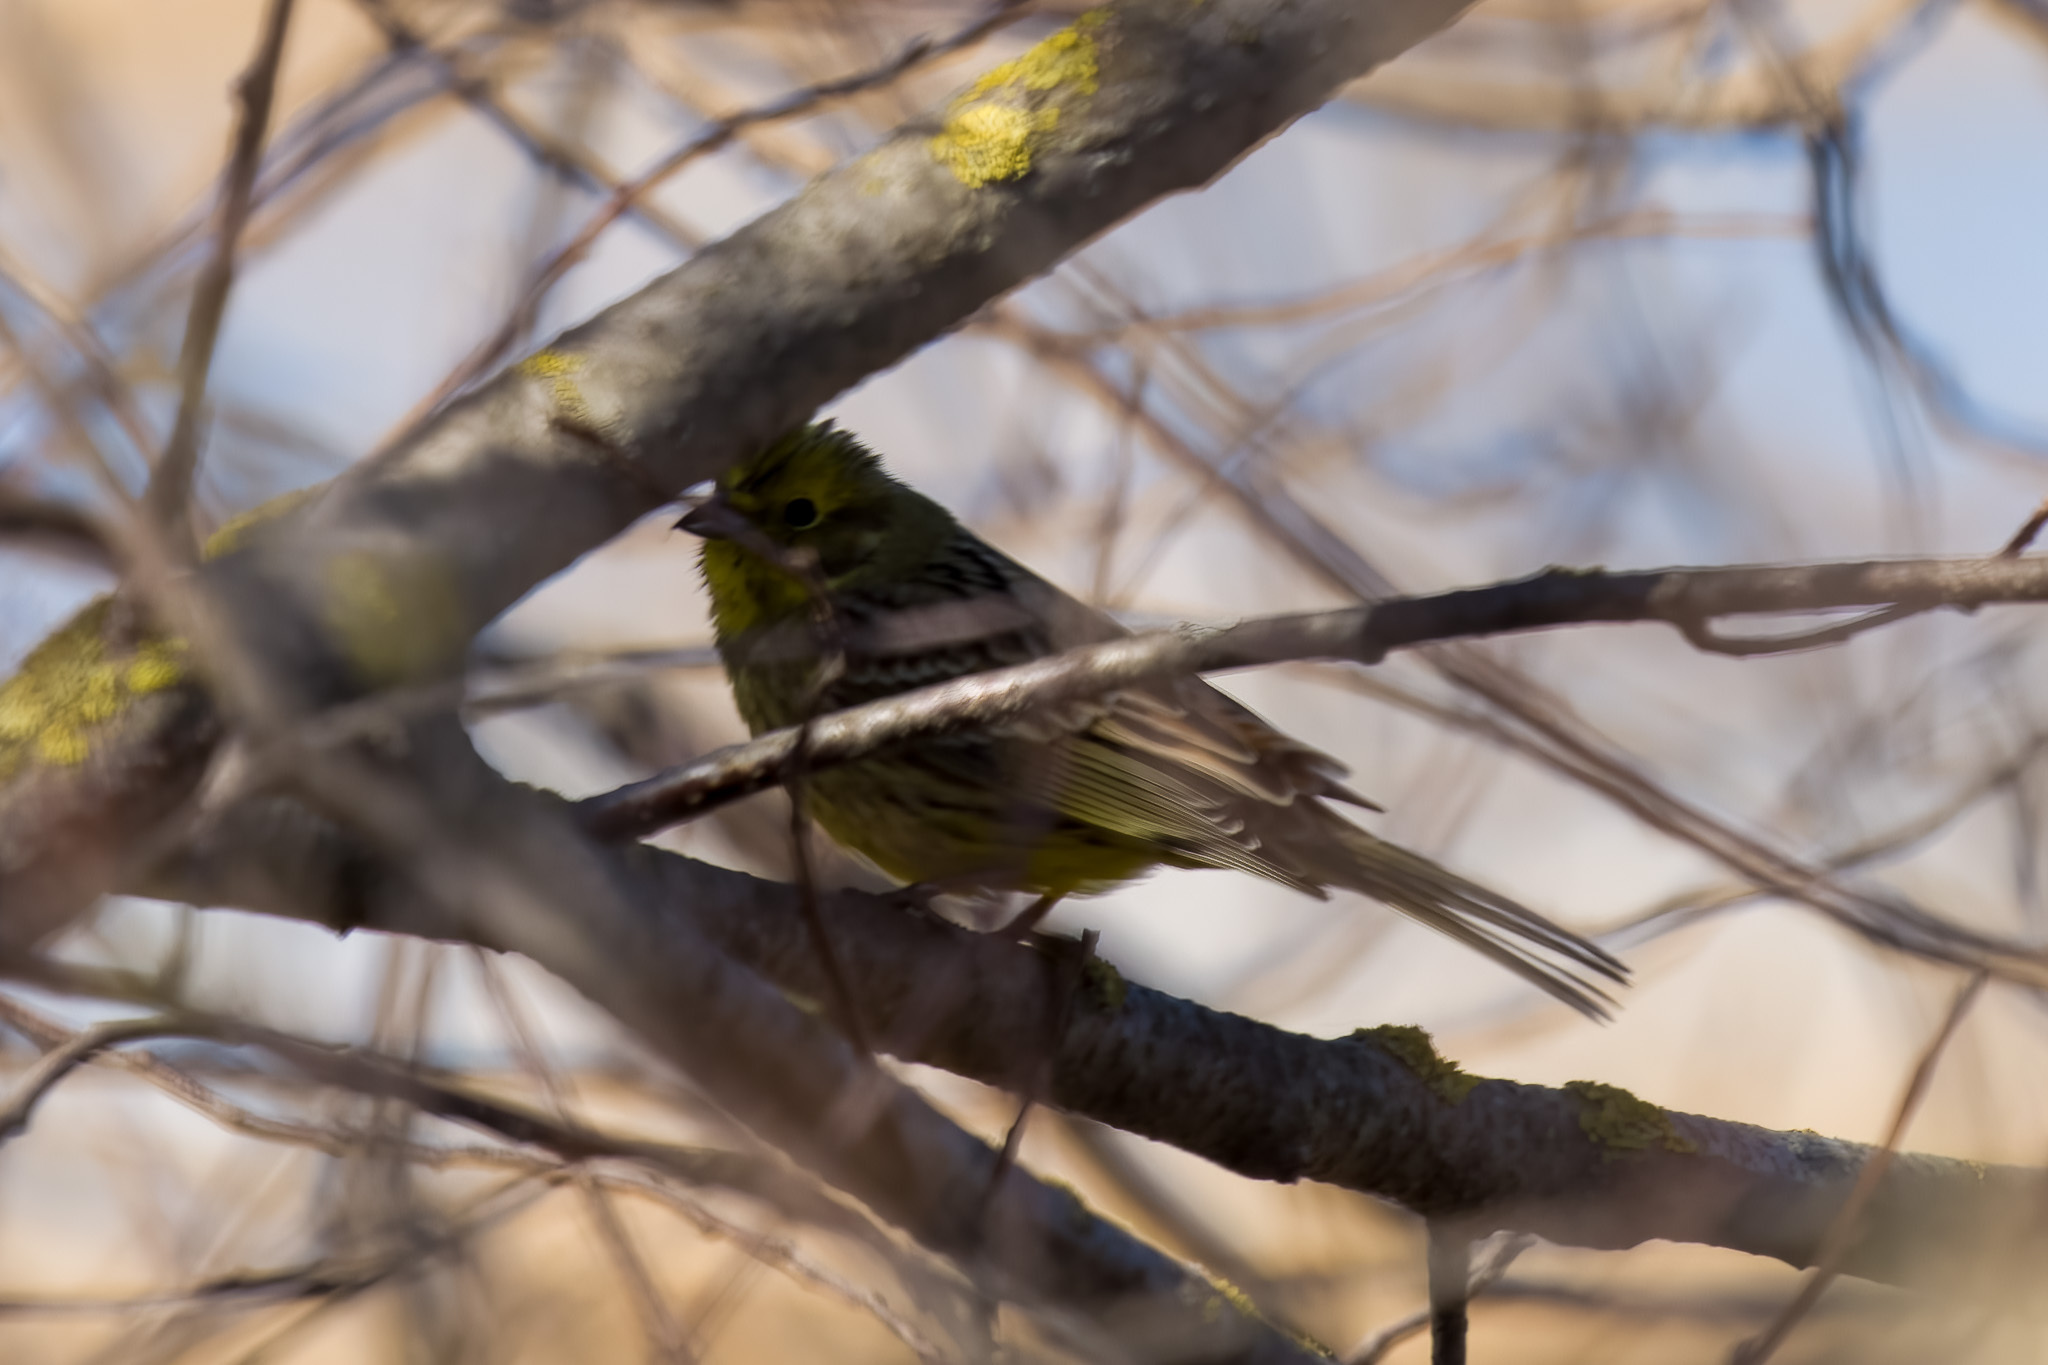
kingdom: Animalia
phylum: Chordata
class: Aves
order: Passeriformes
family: Emberizidae
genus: Emberiza
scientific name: Emberiza citrinella
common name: Yellowhammer
